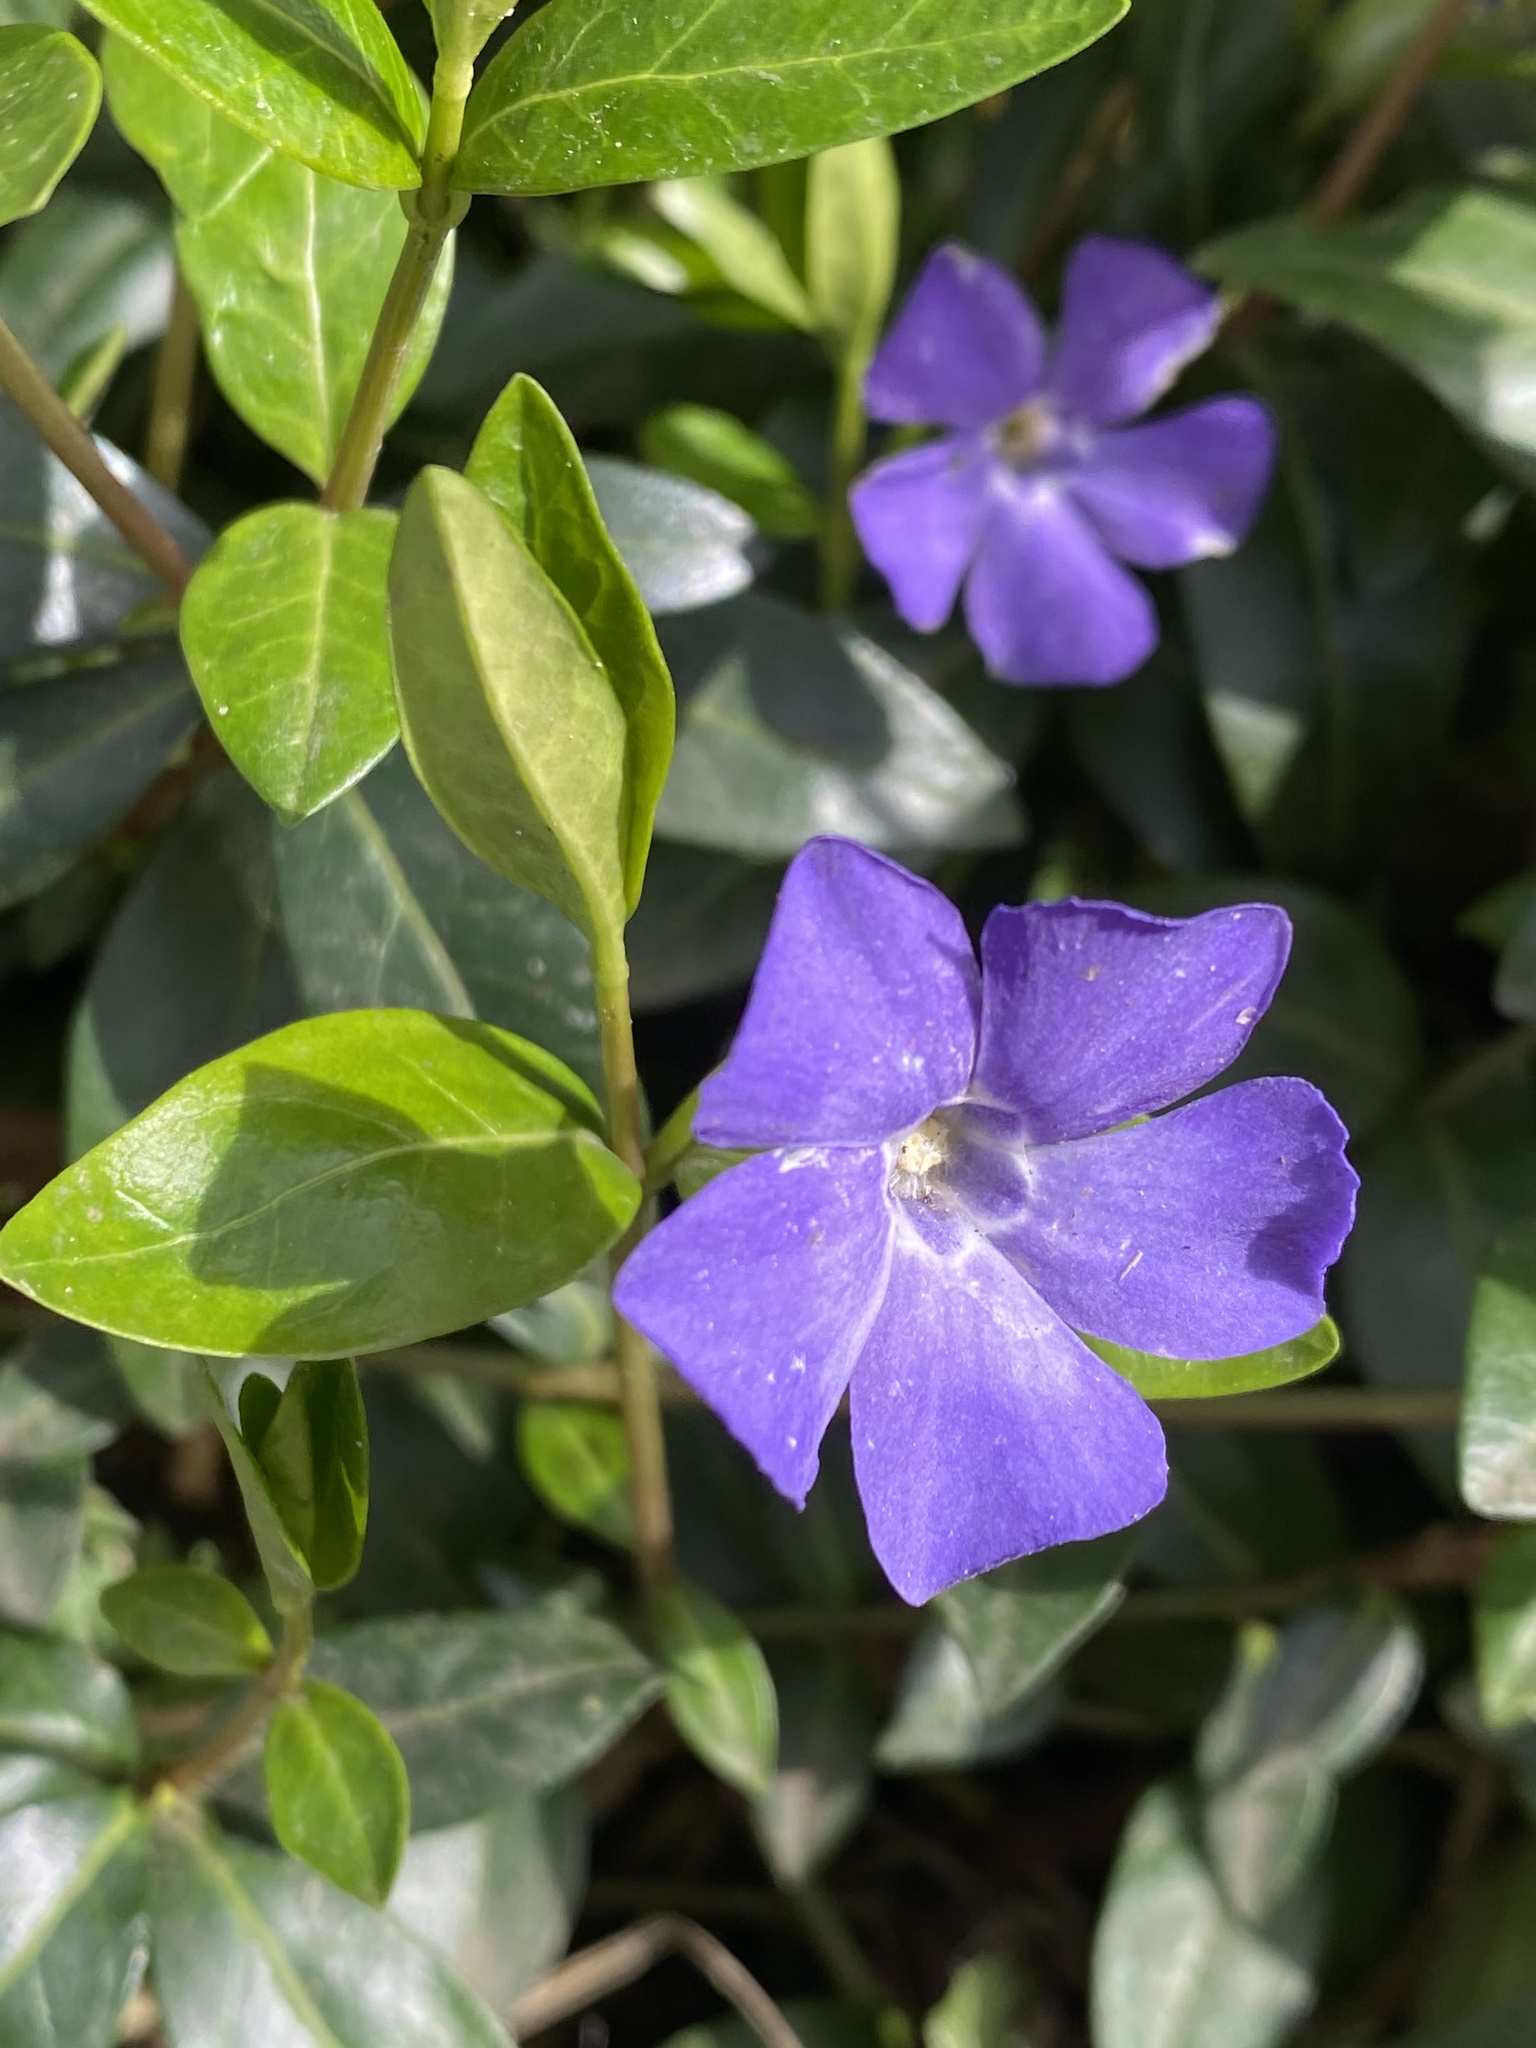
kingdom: Plantae
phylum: Tracheophyta
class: Magnoliopsida
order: Gentianales
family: Apocynaceae
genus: Vinca
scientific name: Vinca minor
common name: Lesser periwinkle
